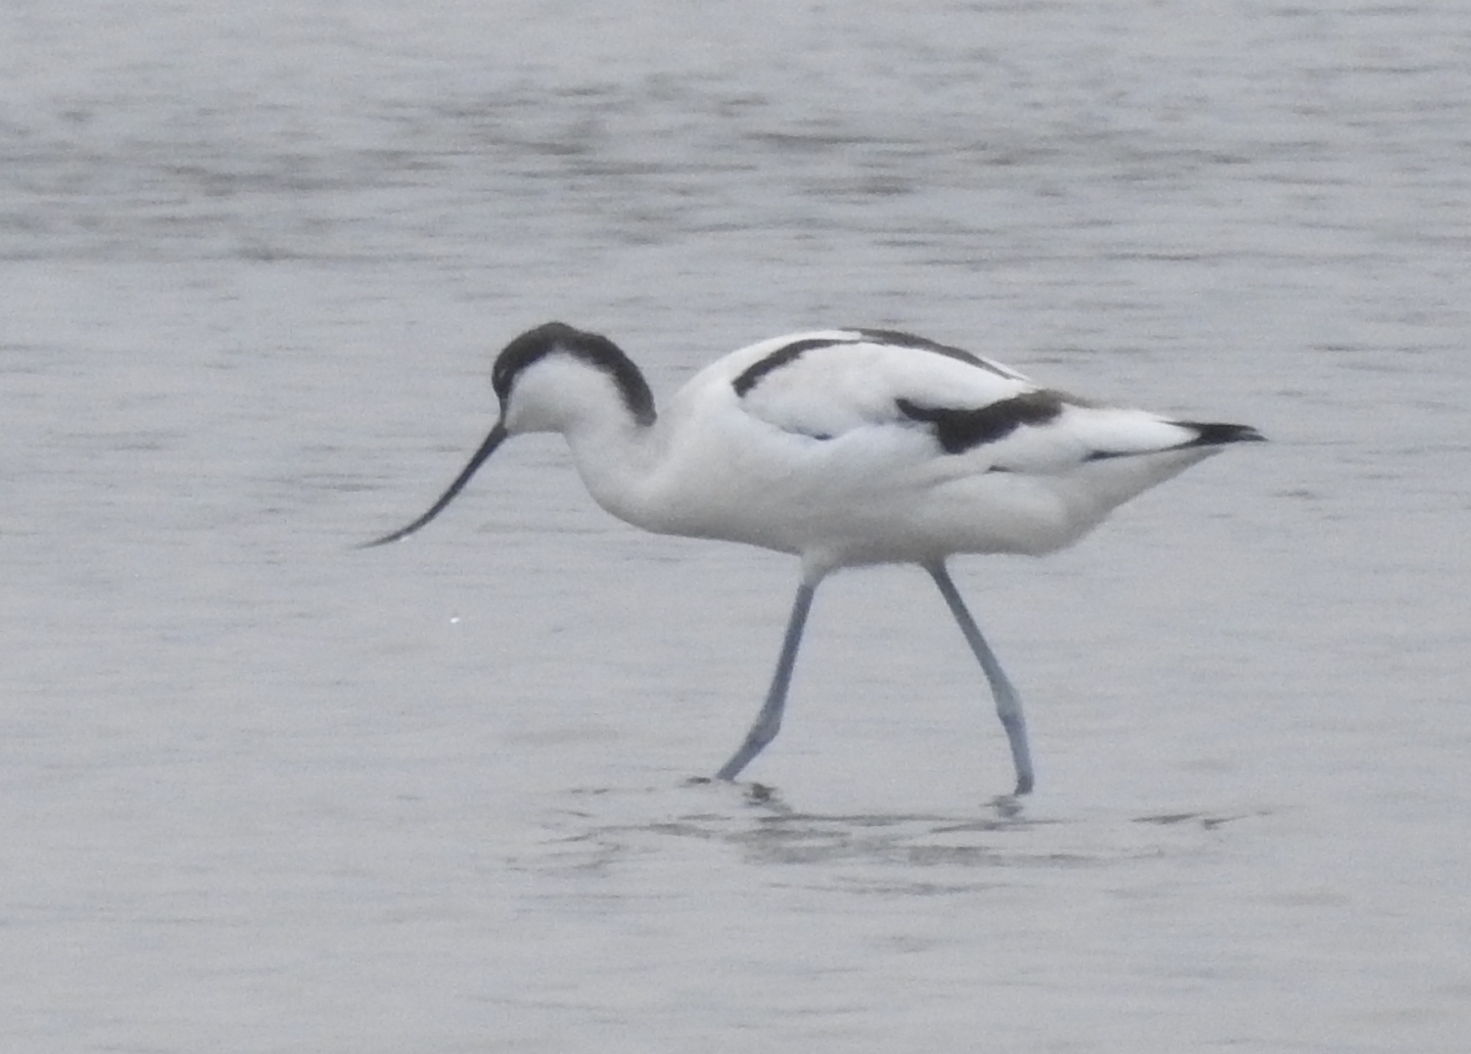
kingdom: Animalia
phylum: Chordata
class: Aves
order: Charadriiformes
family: Recurvirostridae
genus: Recurvirostra
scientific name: Recurvirostra avosetta
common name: Pied avocet
